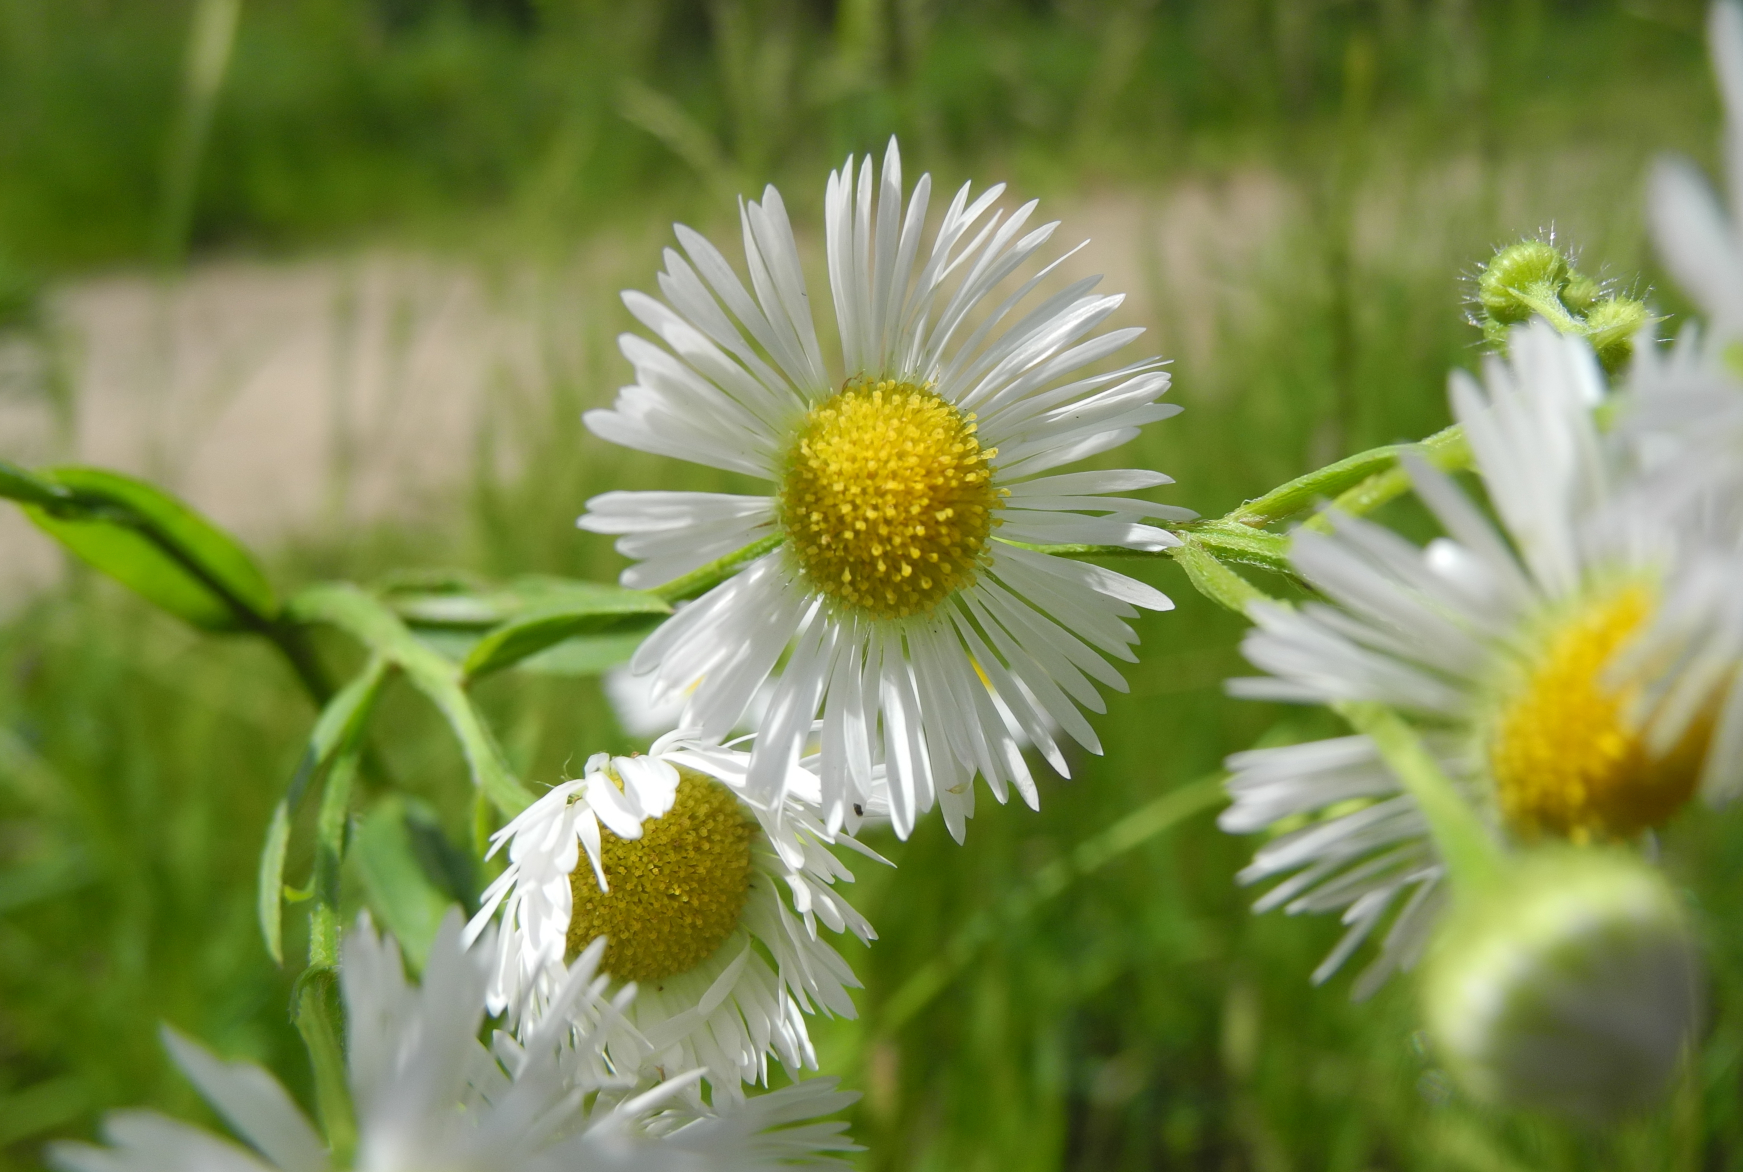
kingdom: Plantae
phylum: Tracheophyta
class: Magnoliopsida
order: Asterales
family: Asteraceae
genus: Erigeron
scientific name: Erigeron annuus
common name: Tall fleabane
